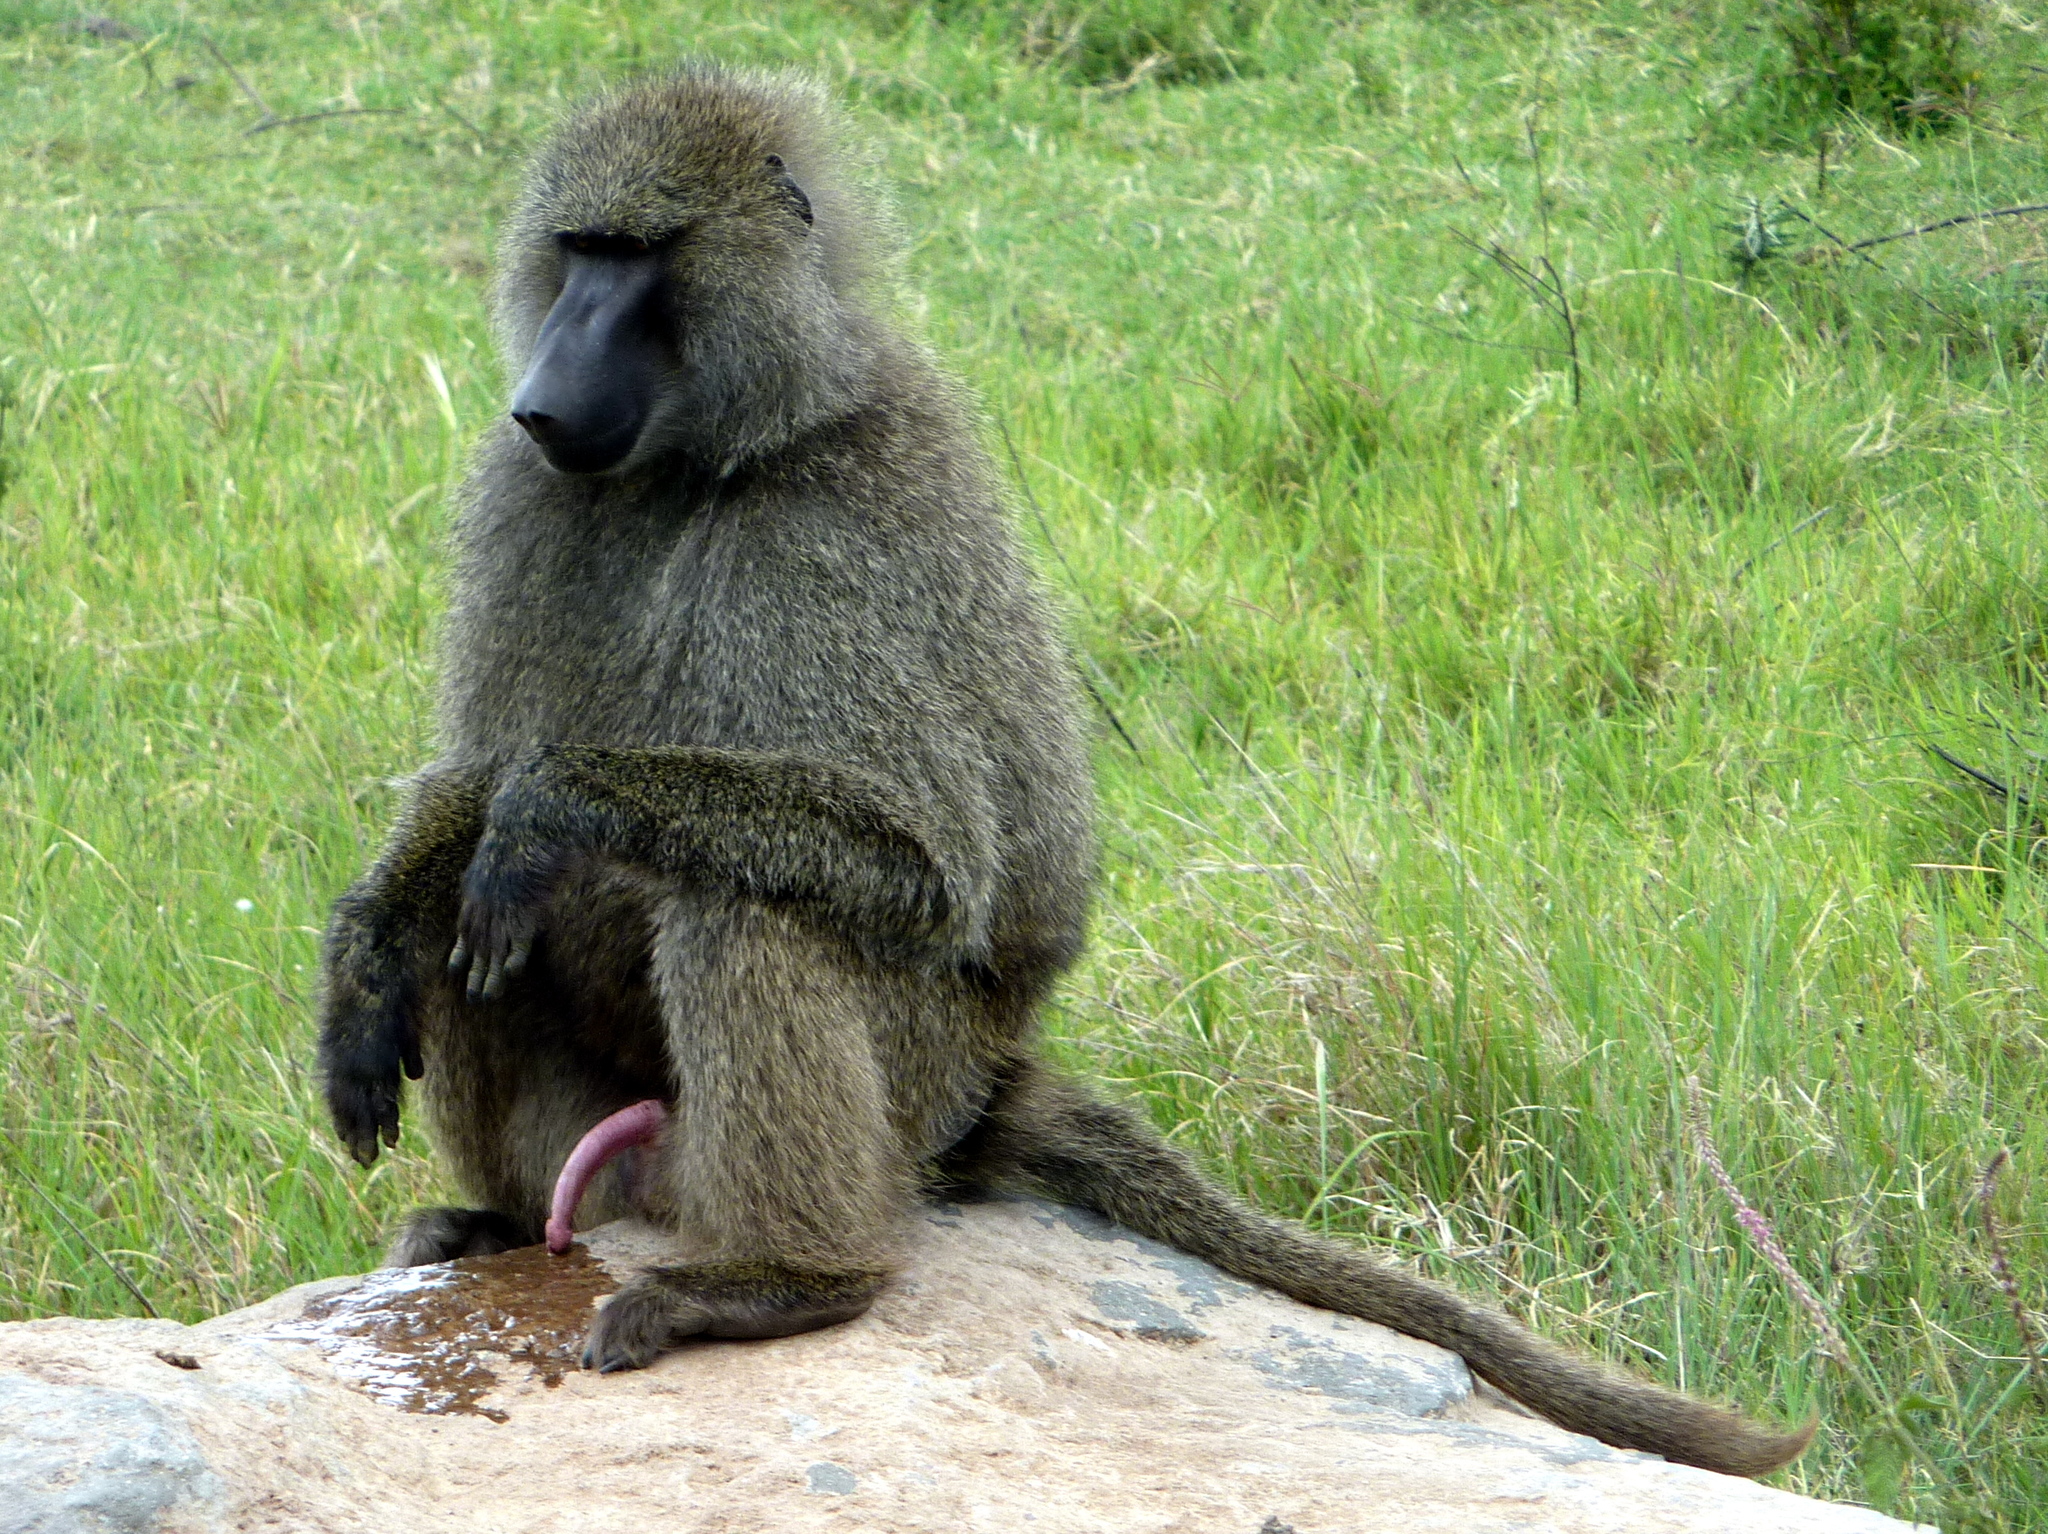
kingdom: Animalia
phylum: Chordata
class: Mammalia
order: Primates
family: Cercopithecidae
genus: Papio
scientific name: Papio anubis
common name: Olive baboon
